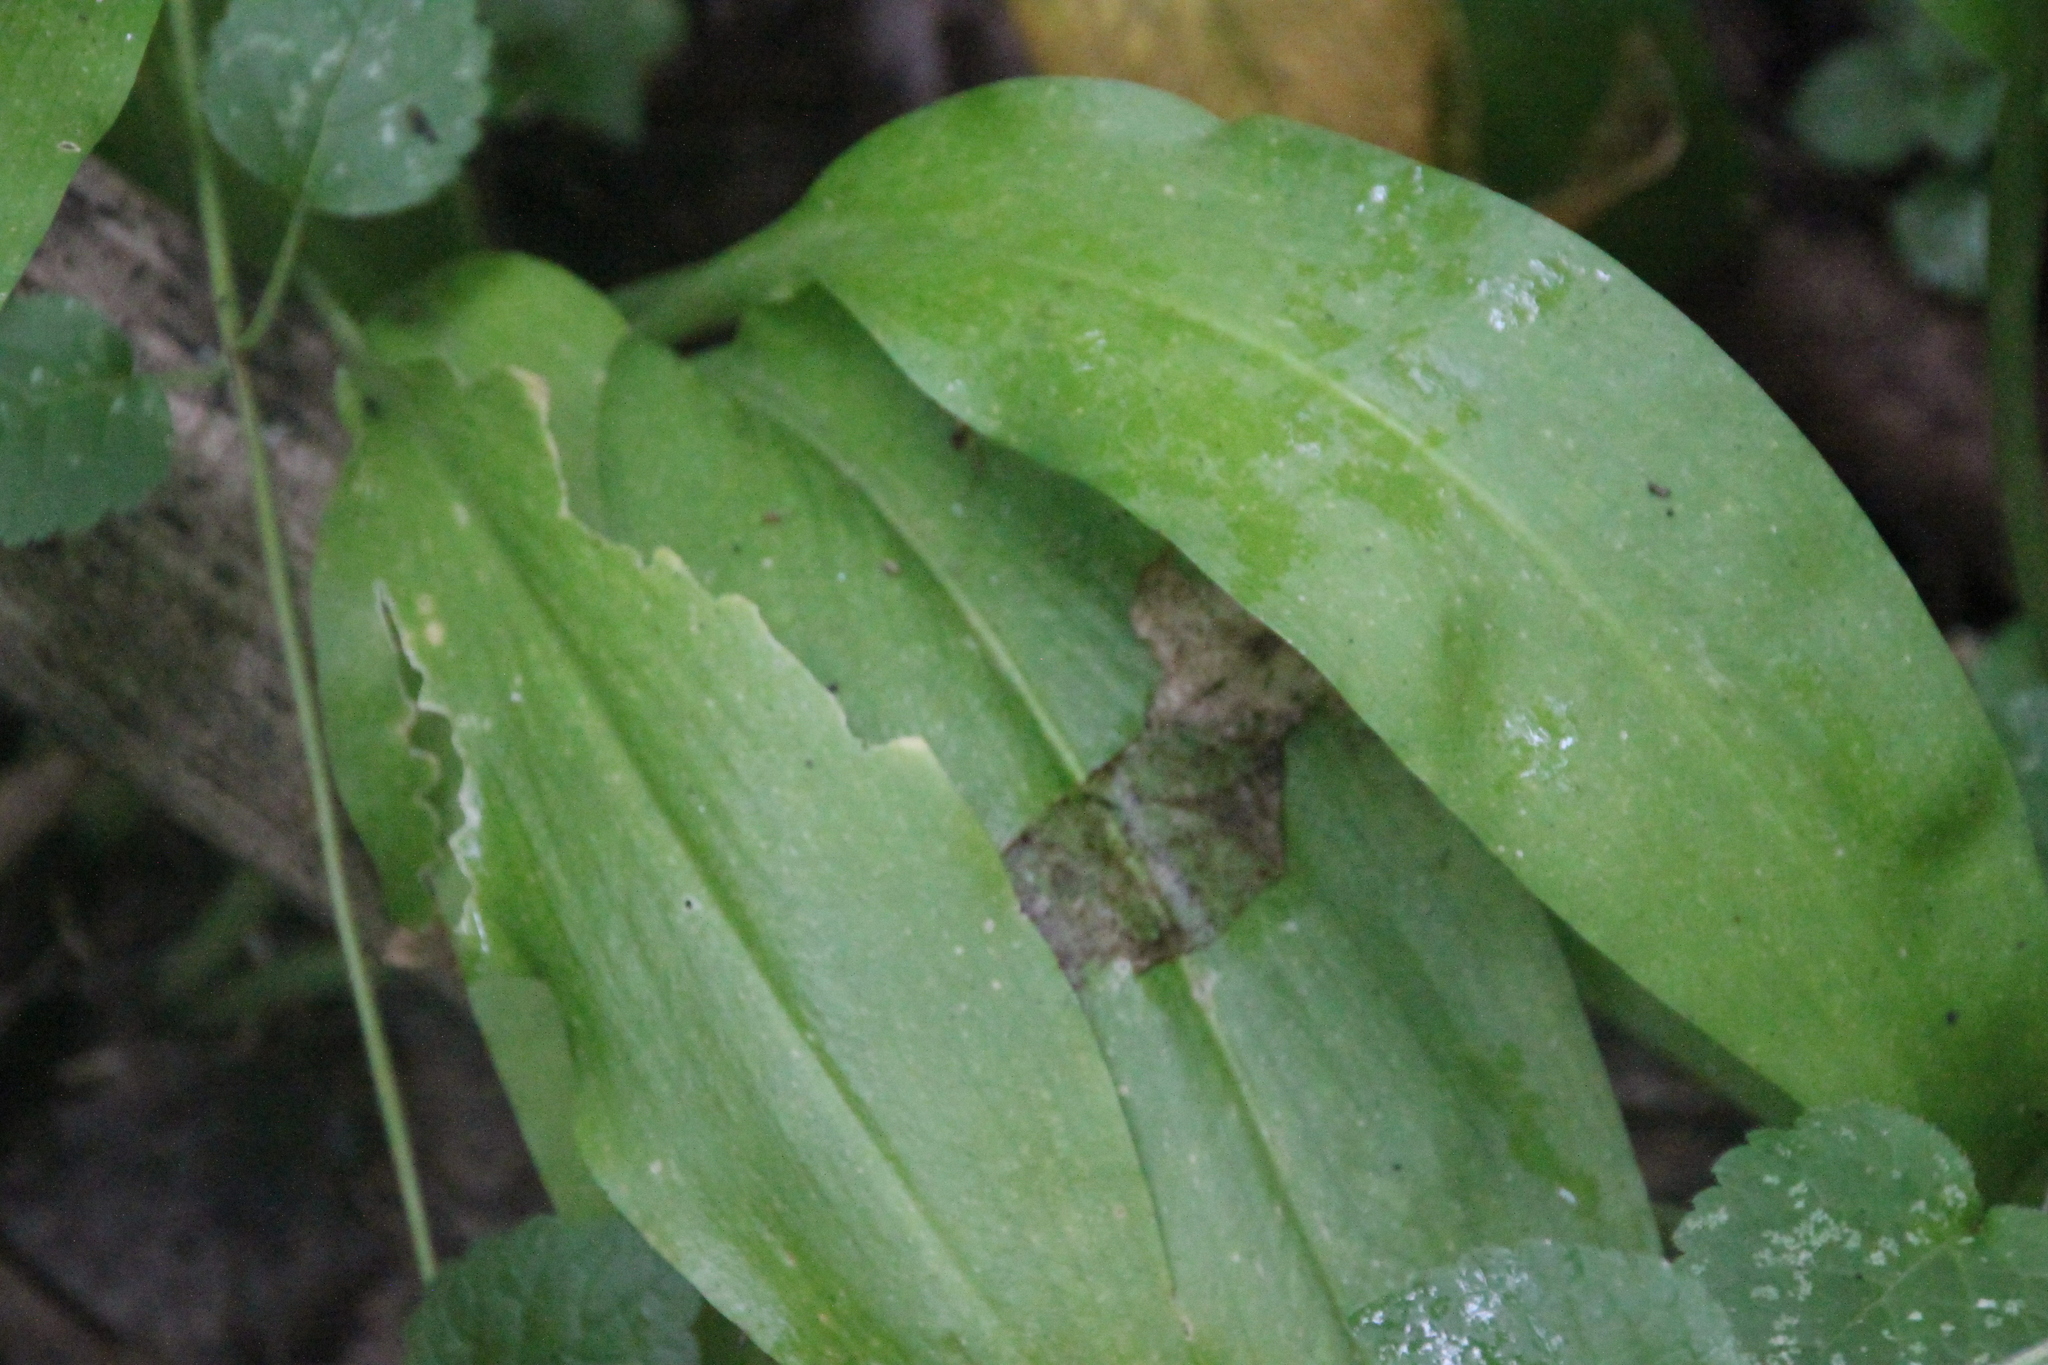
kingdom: Plantae
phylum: Tracheophyta
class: Liliopsida
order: Asparagales
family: Amaryllidaceae
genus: Allium
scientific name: Allium ursinum
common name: Ramsons
